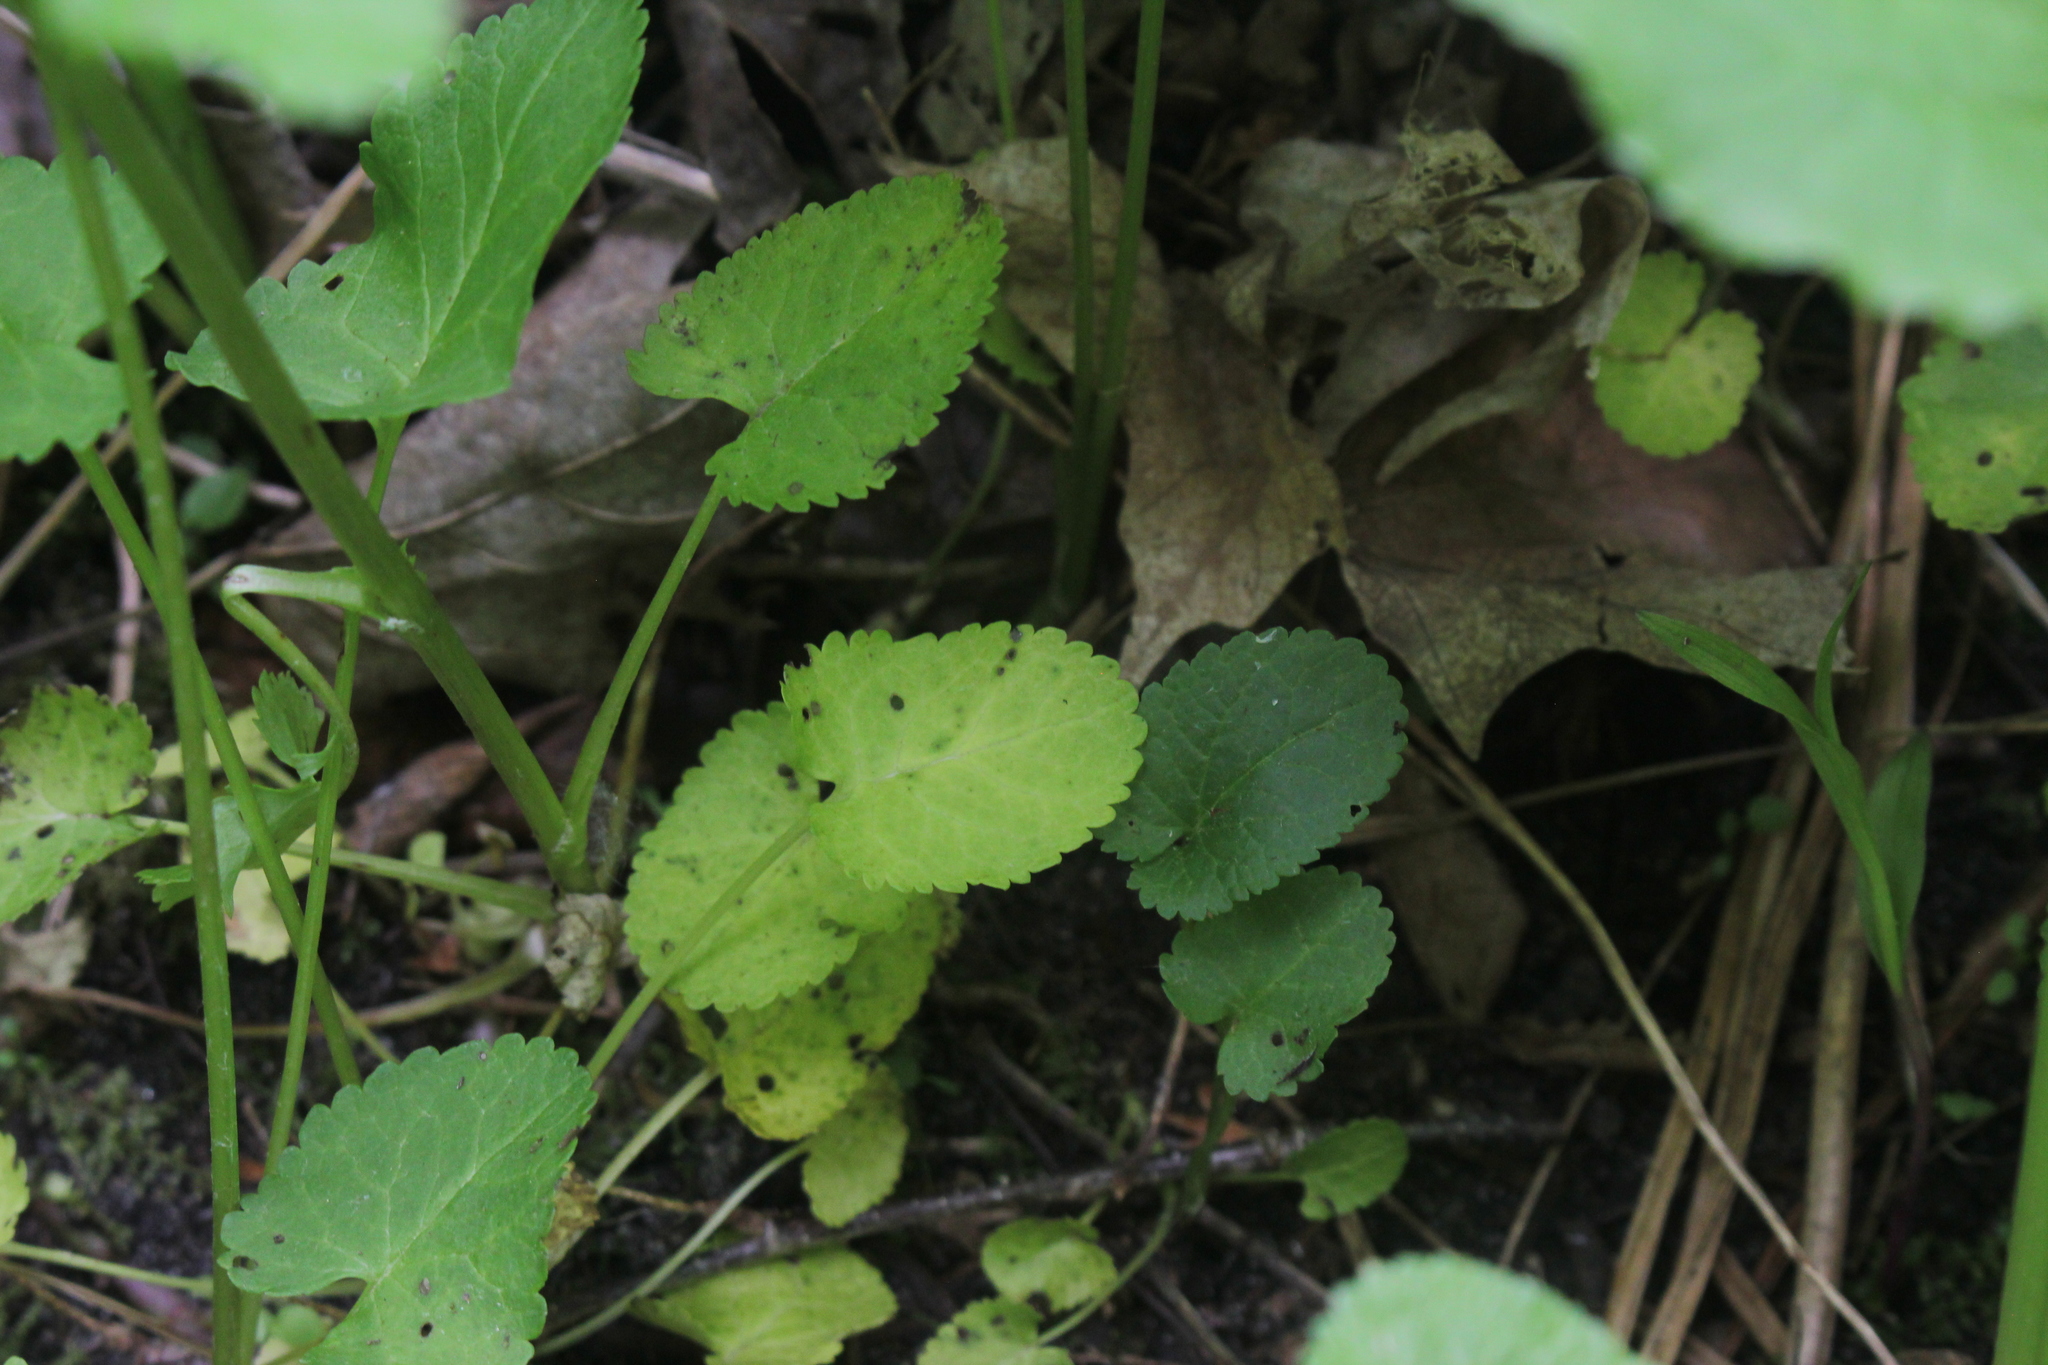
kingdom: Plantae
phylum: Tracheophyta
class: Magnoliopsida
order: Asterales
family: Asteraceae
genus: Packera
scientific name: Packera aurea
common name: Golden groundsel
